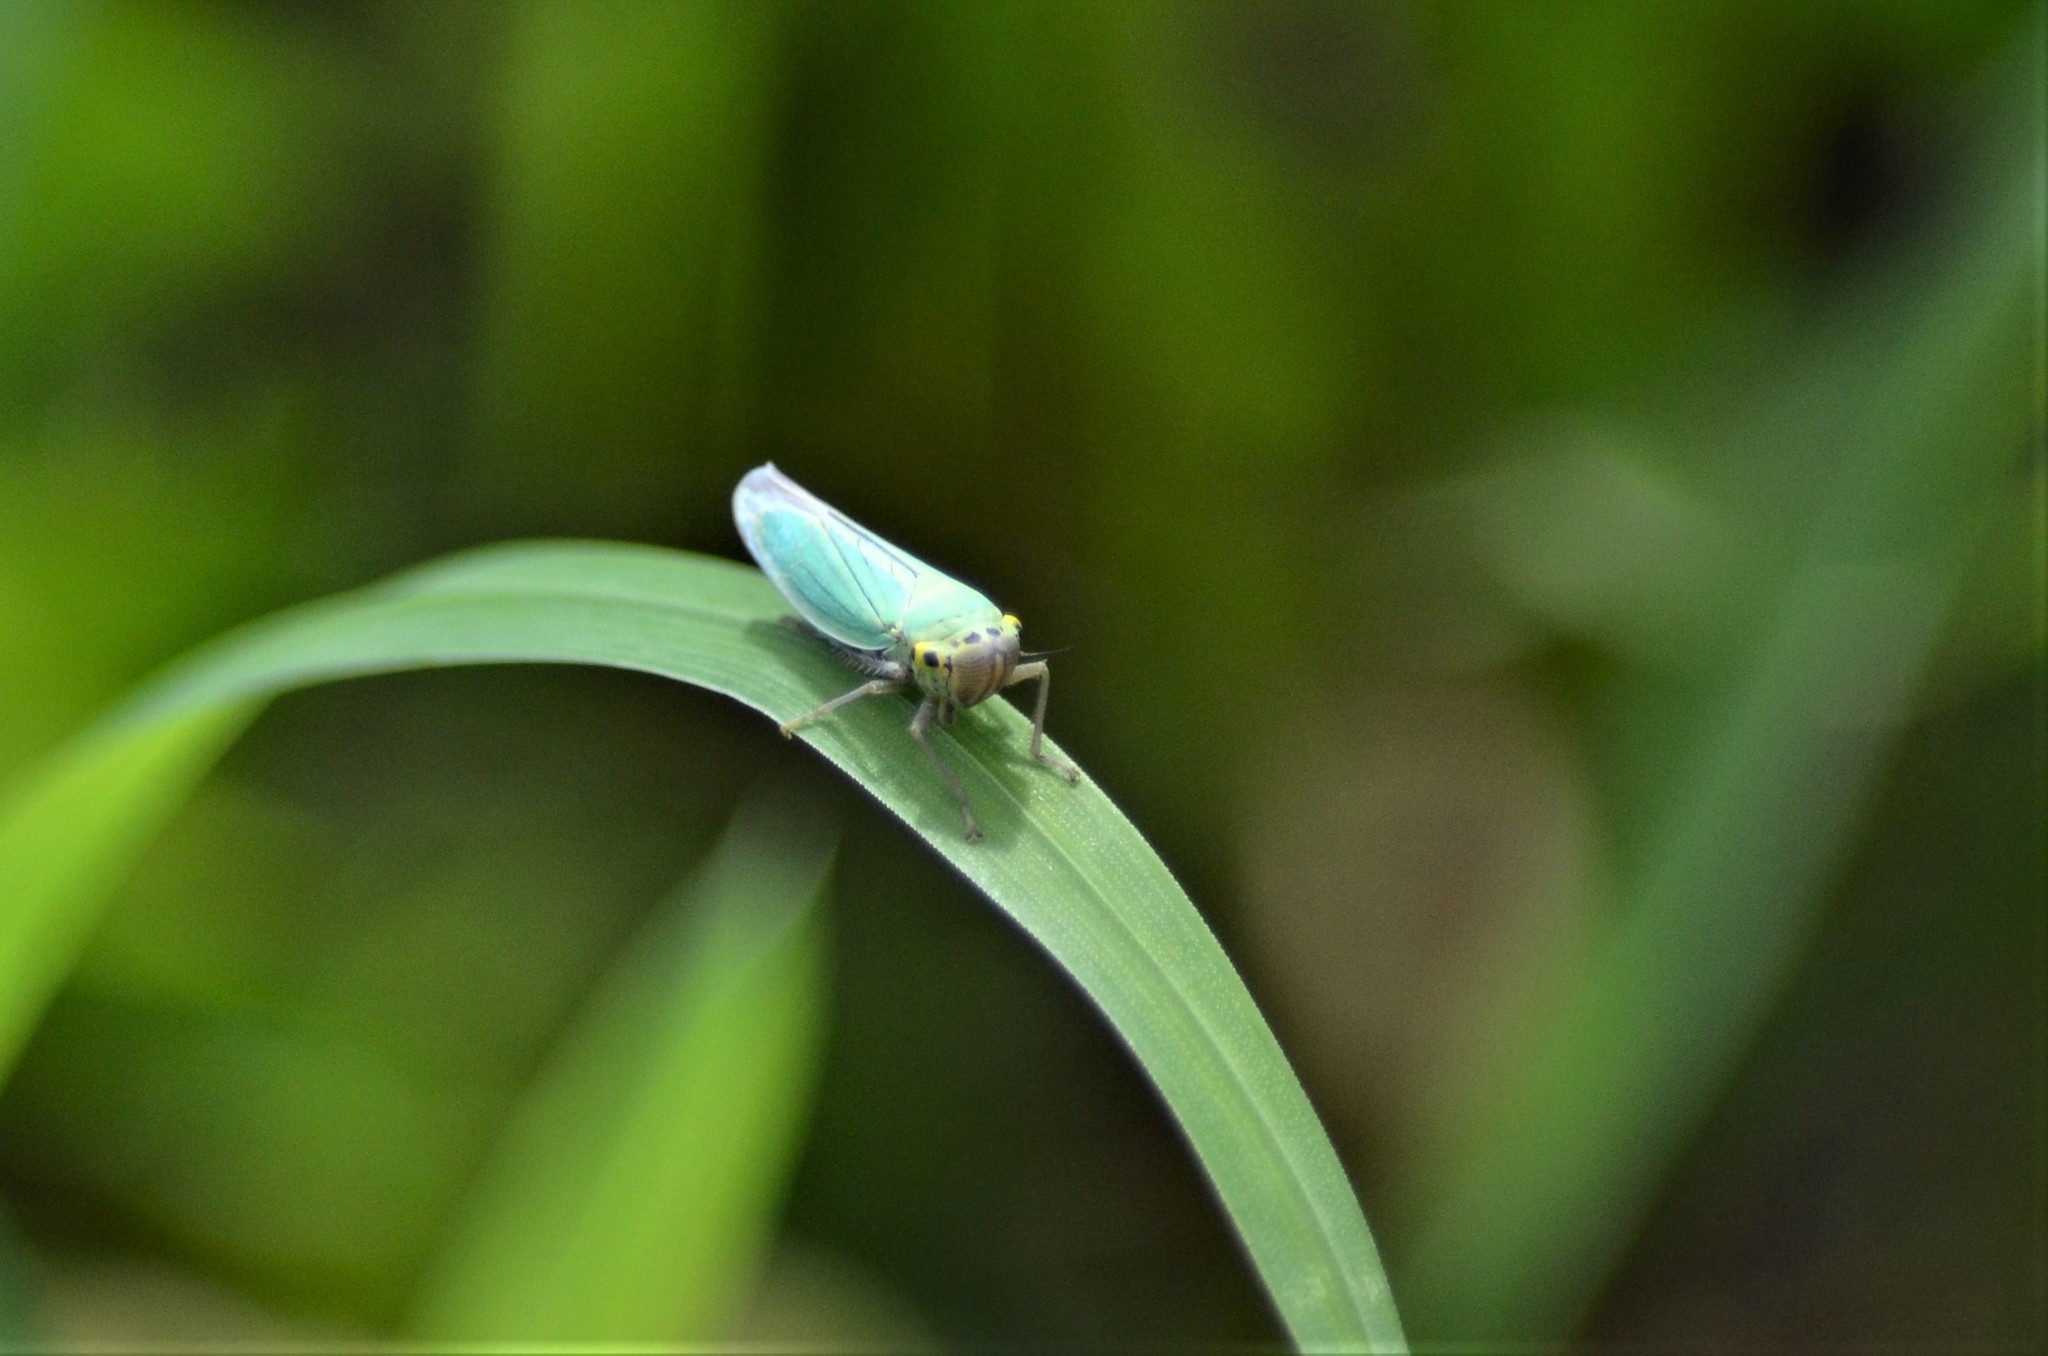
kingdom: Animalia
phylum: Arthropoda
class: Insecta
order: Hemiptera
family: Cicadellidae
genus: Cicadella
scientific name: Cicadella viridis
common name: Leafhopper
